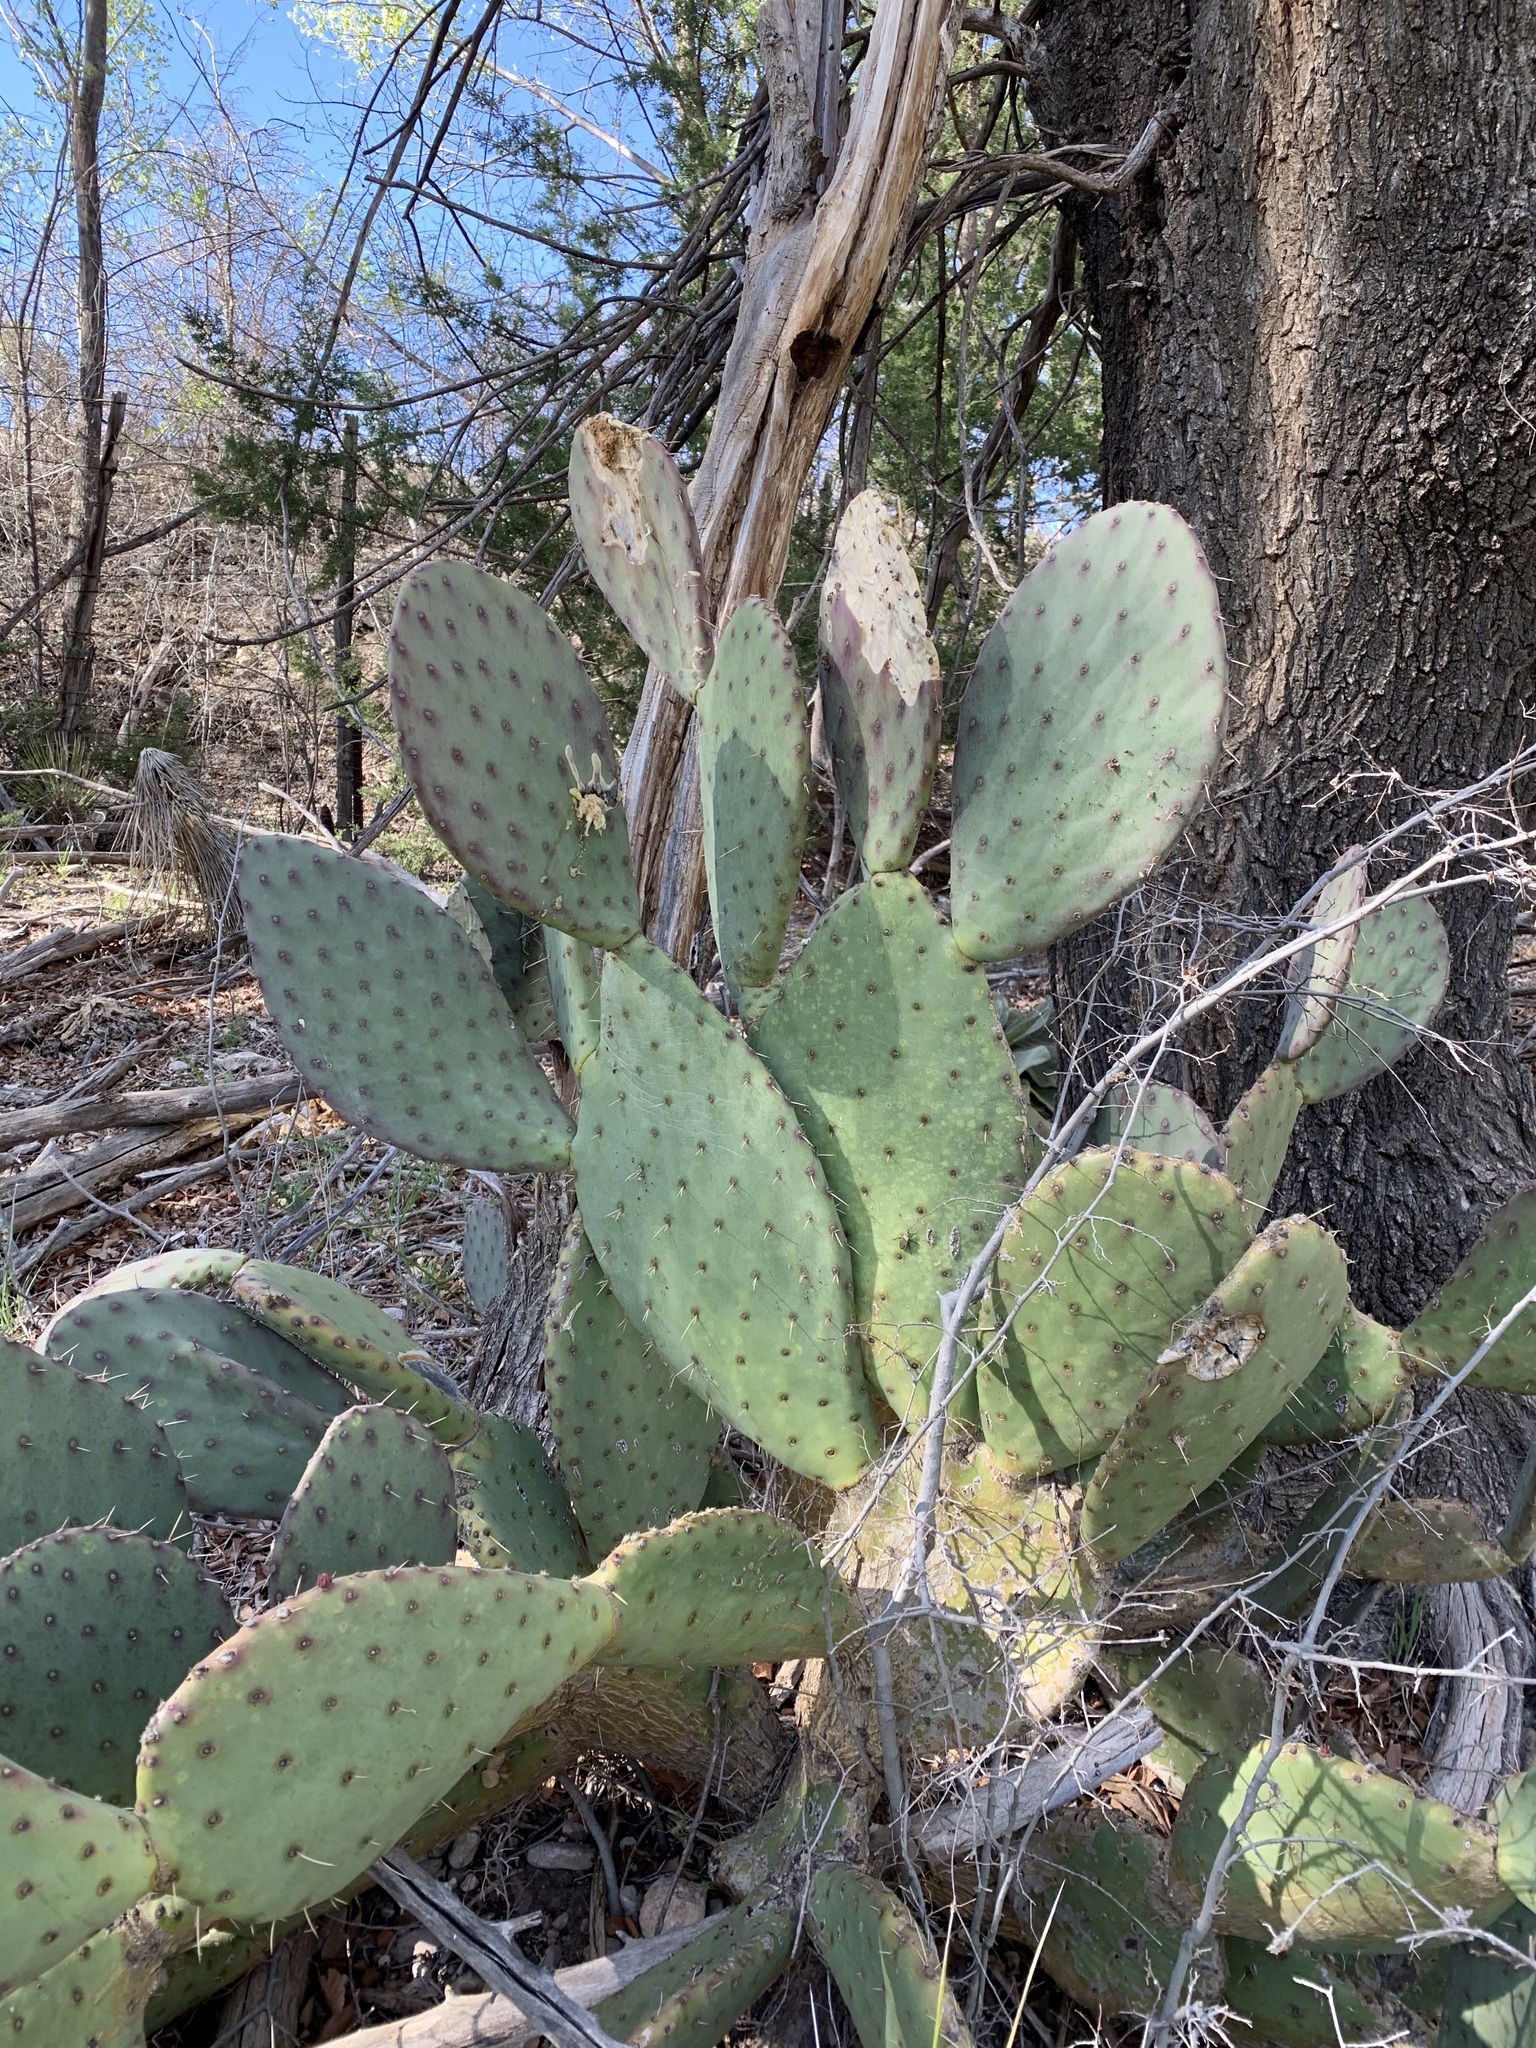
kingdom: Plantae
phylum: Tracheophyta
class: Magnoliopsida
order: Caryophyllales
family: Cactaceae
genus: Opuntia
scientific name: Opuntia wootonii
